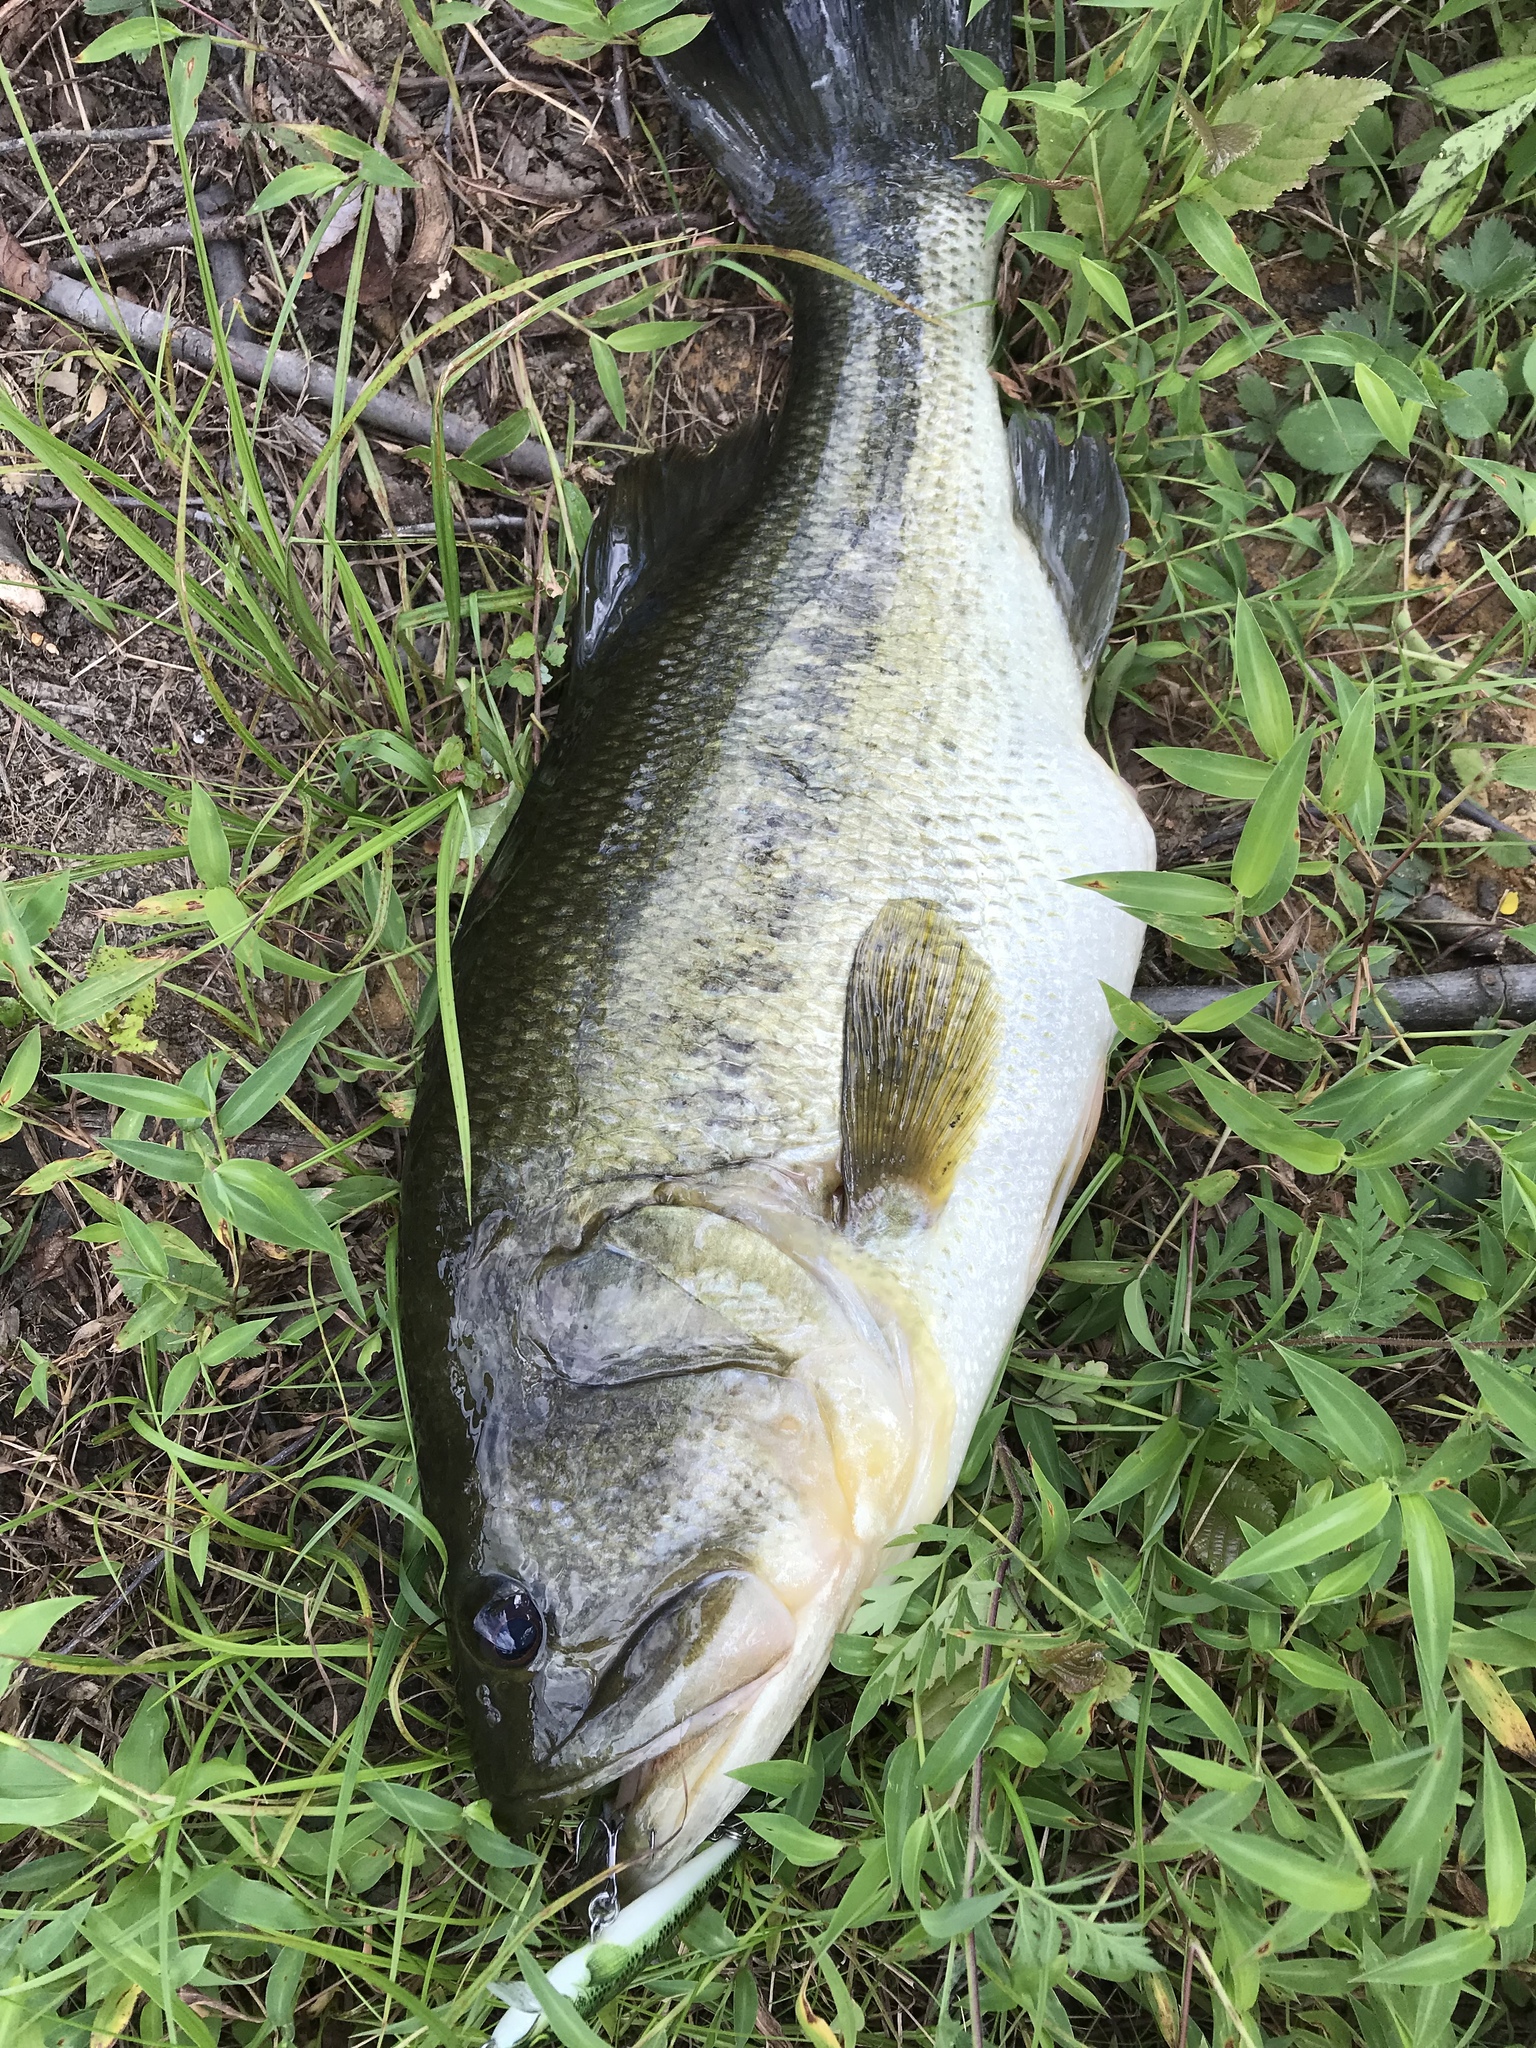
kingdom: Animalia
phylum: Chordata
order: Perciformes
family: Centrarchidae
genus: Micropterus
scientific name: Micropterus
